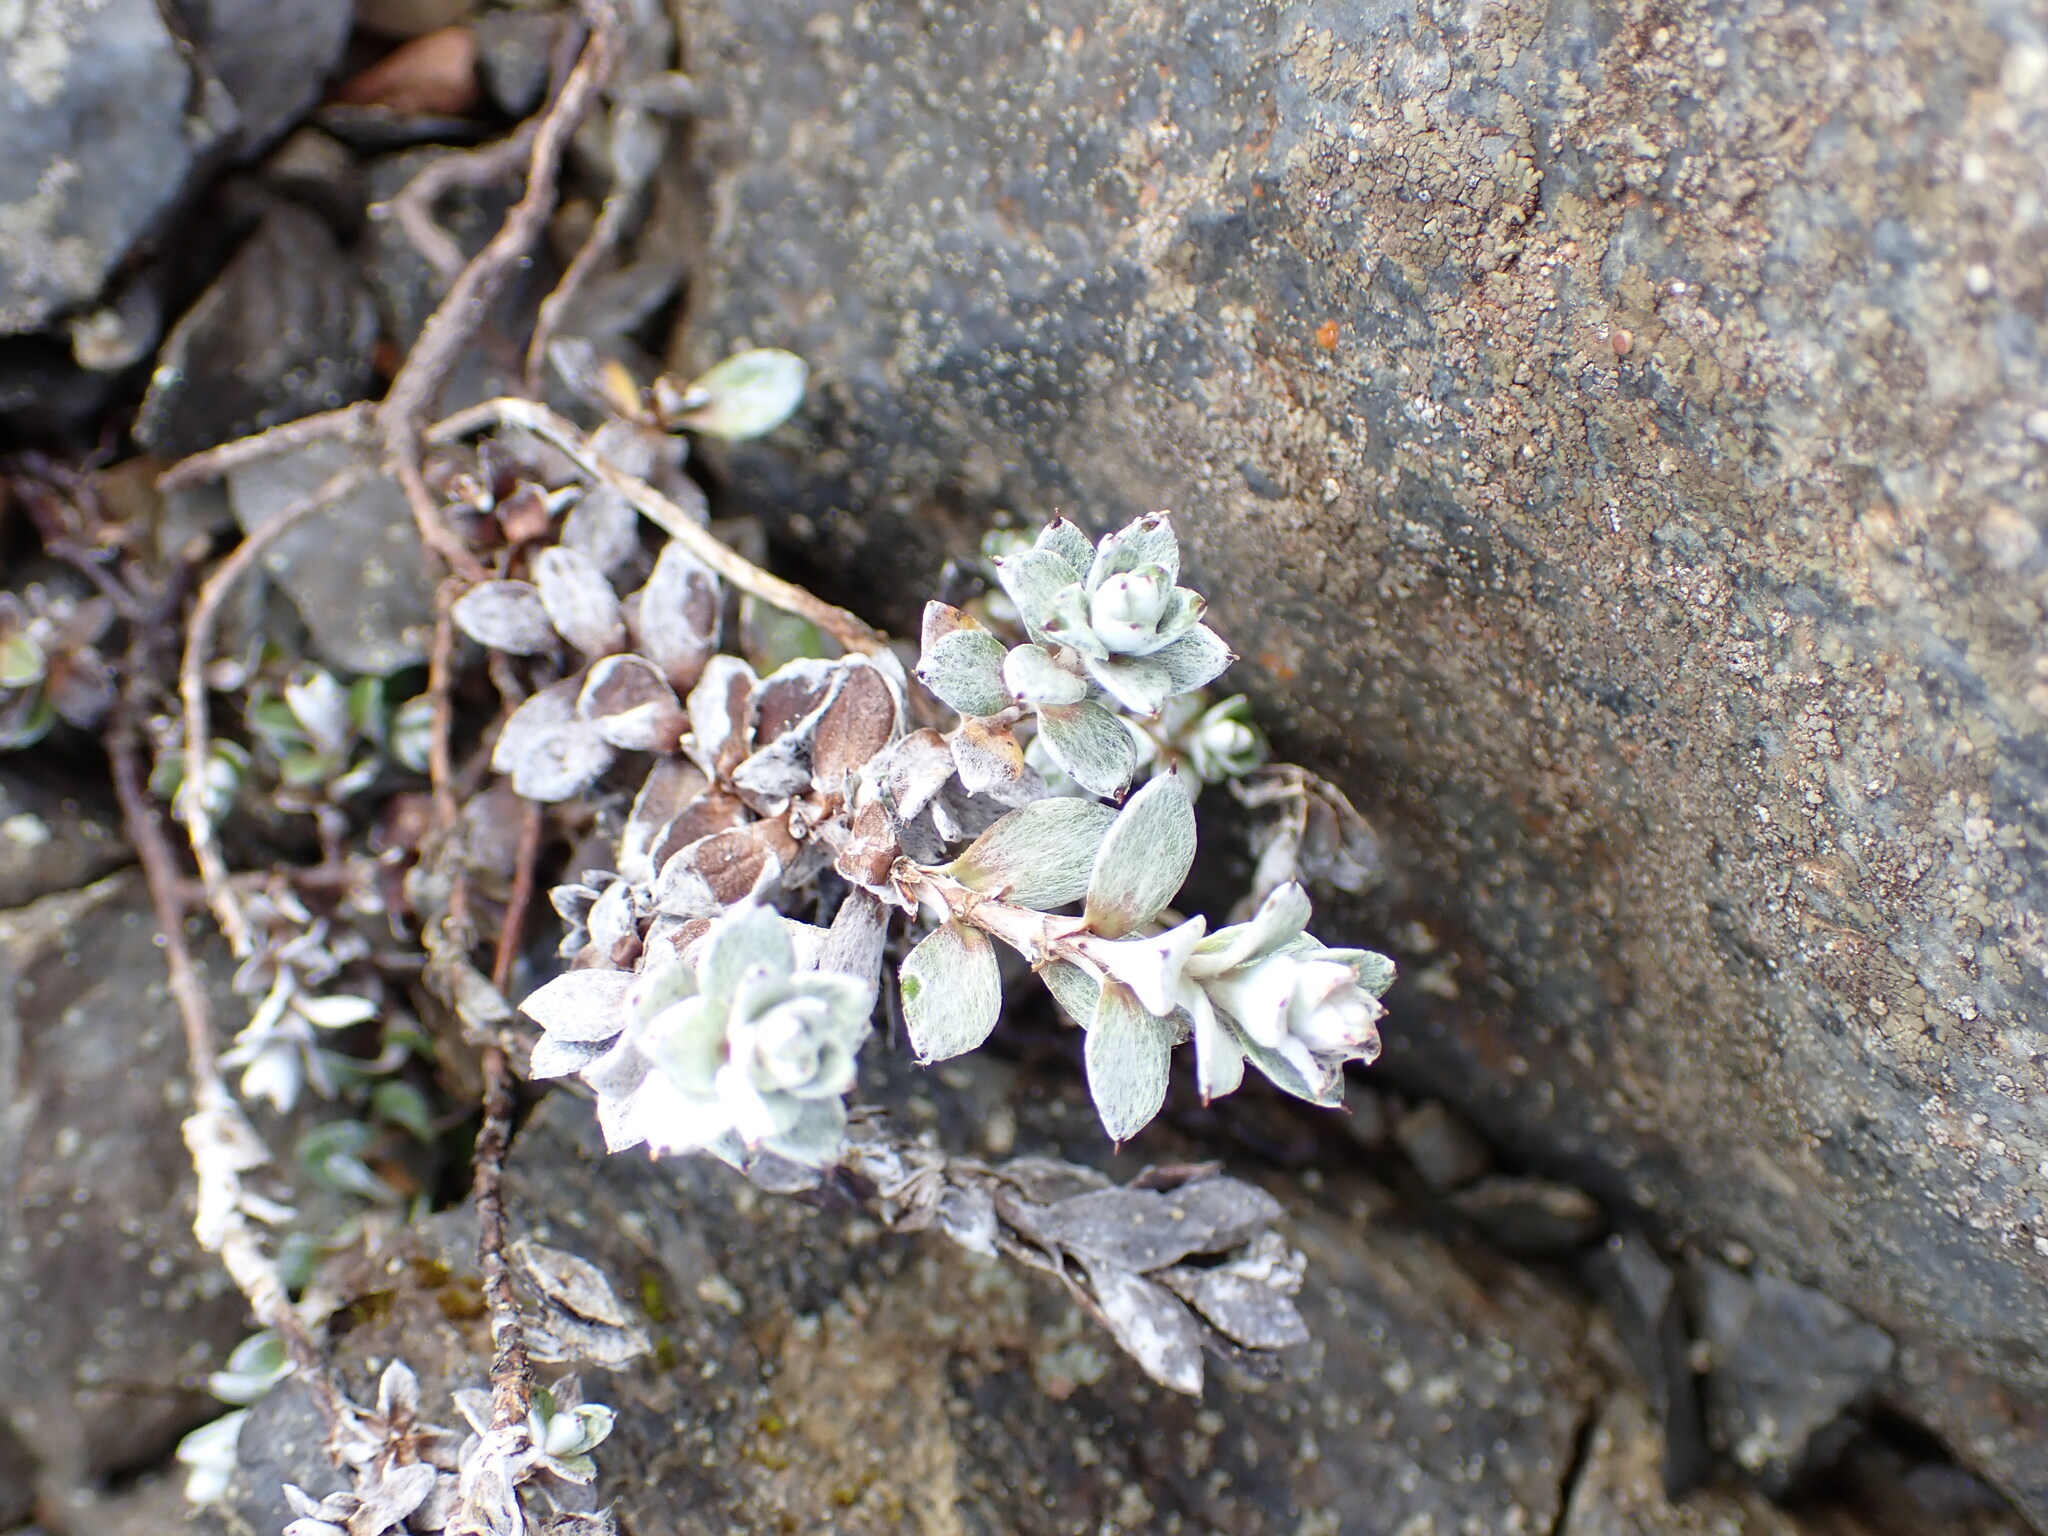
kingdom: Plantae
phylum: Tracheophyta
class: Magnoliopsida
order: Asterales
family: Asteraceae
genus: Anaphalioides
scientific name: Anaphalioides bellidioides
